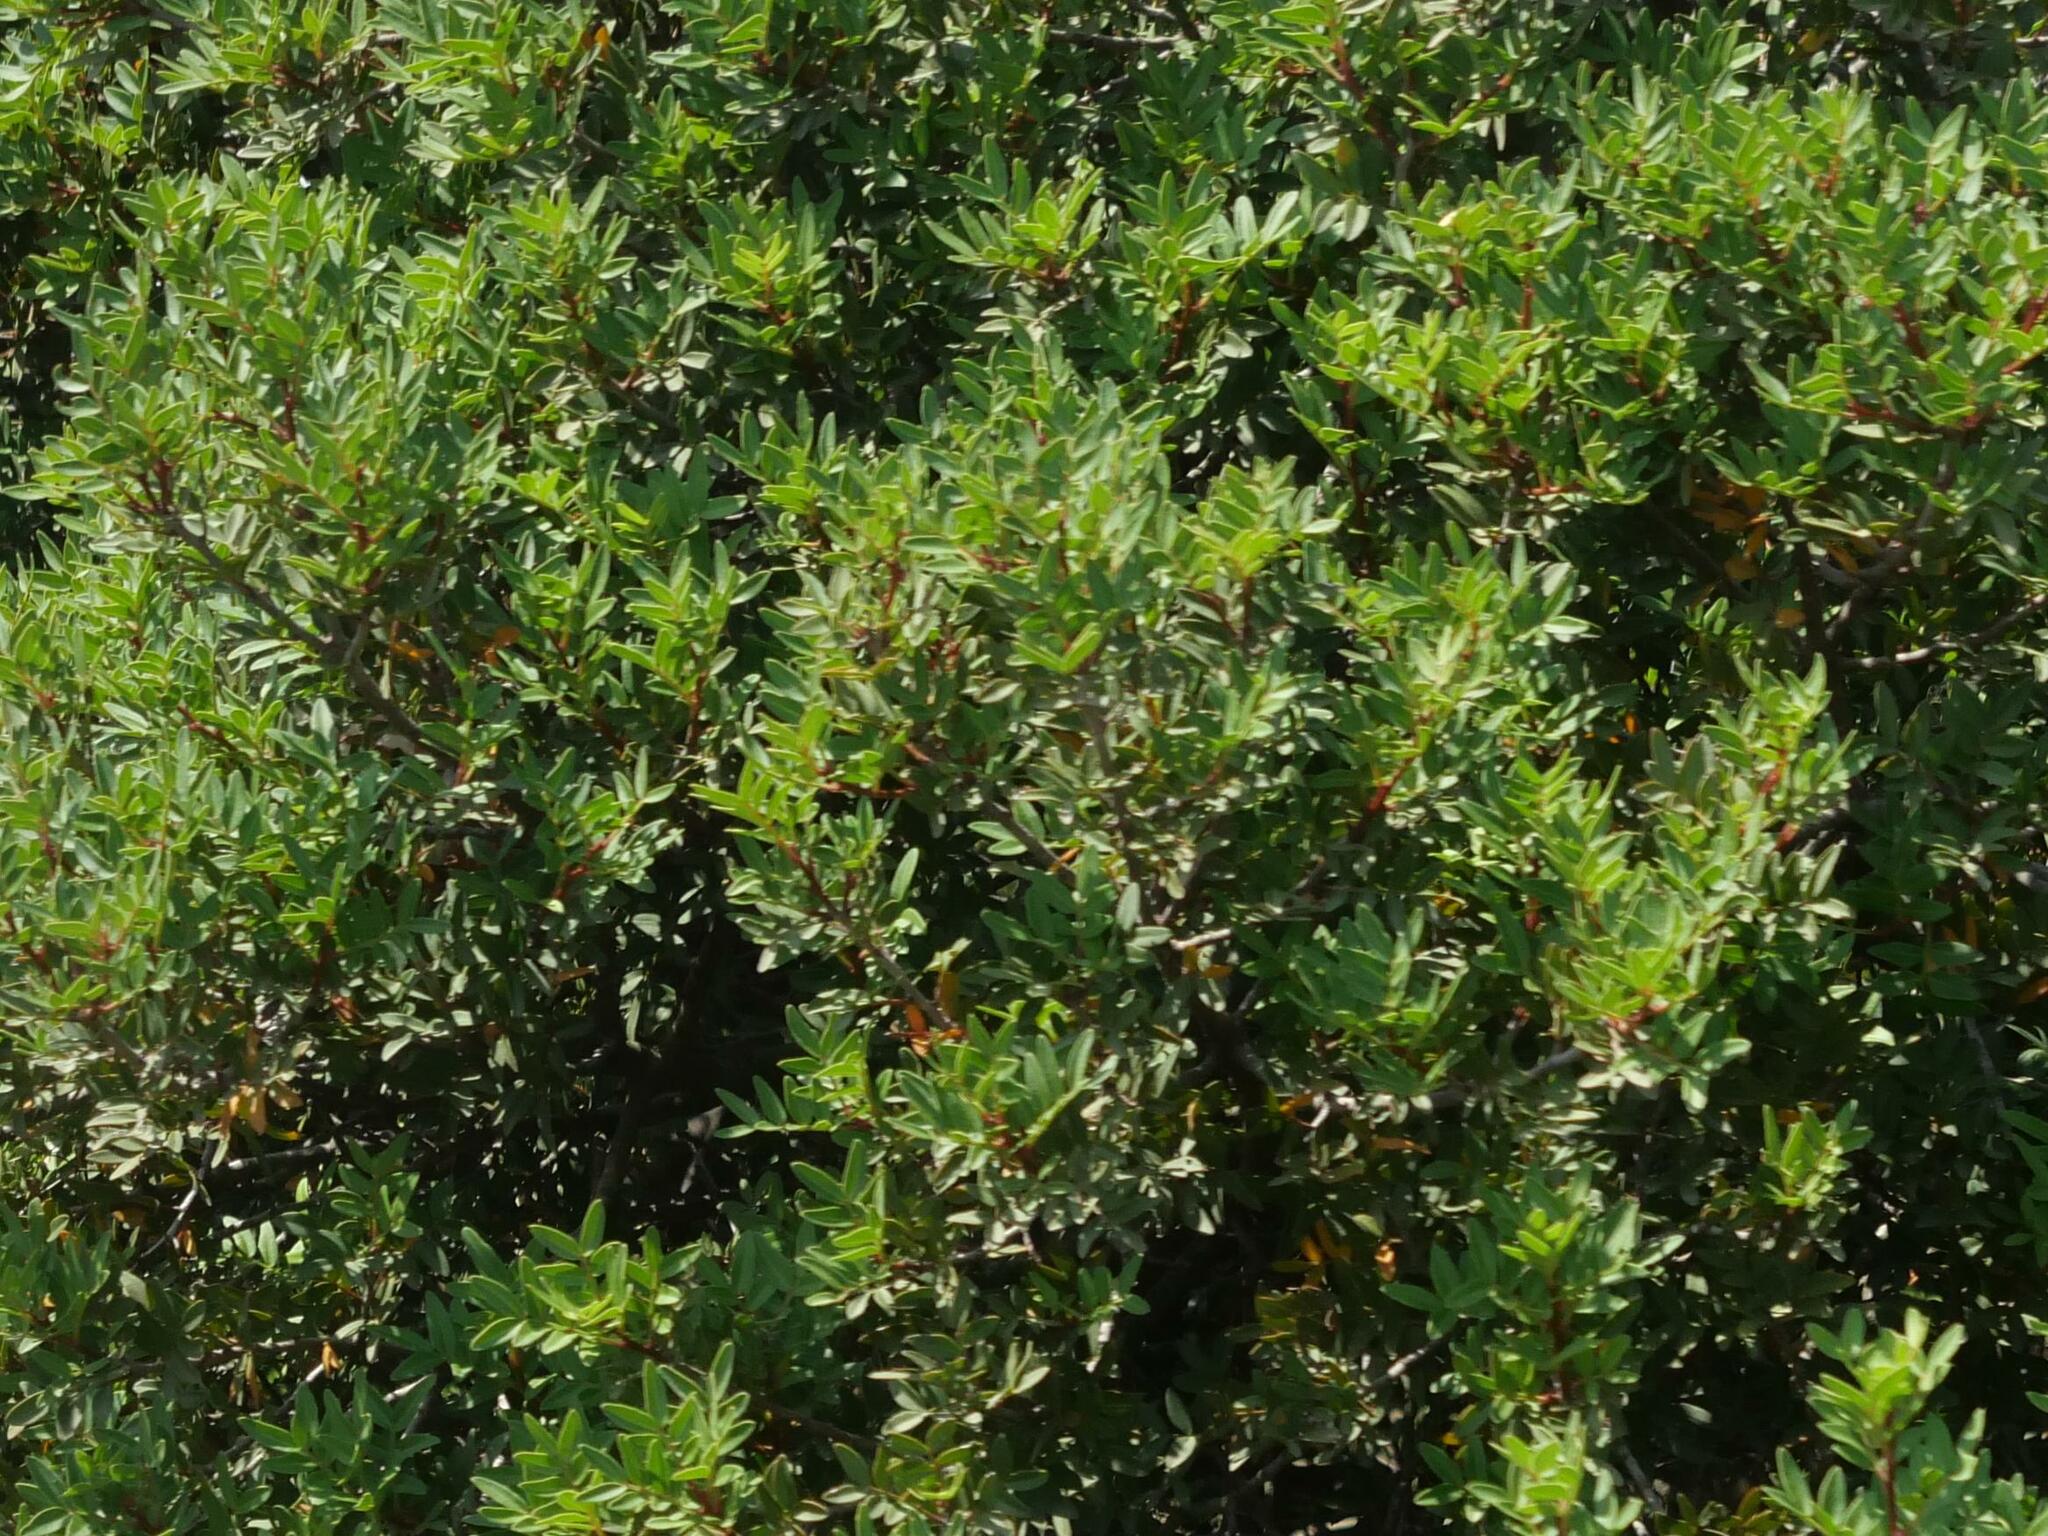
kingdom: Plantae
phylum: Tracheophyta
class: Magnoliopsida
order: Sapindales
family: Anacardiaceae
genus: Pistacia
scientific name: Pistacia lentiscus
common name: Lentisk
